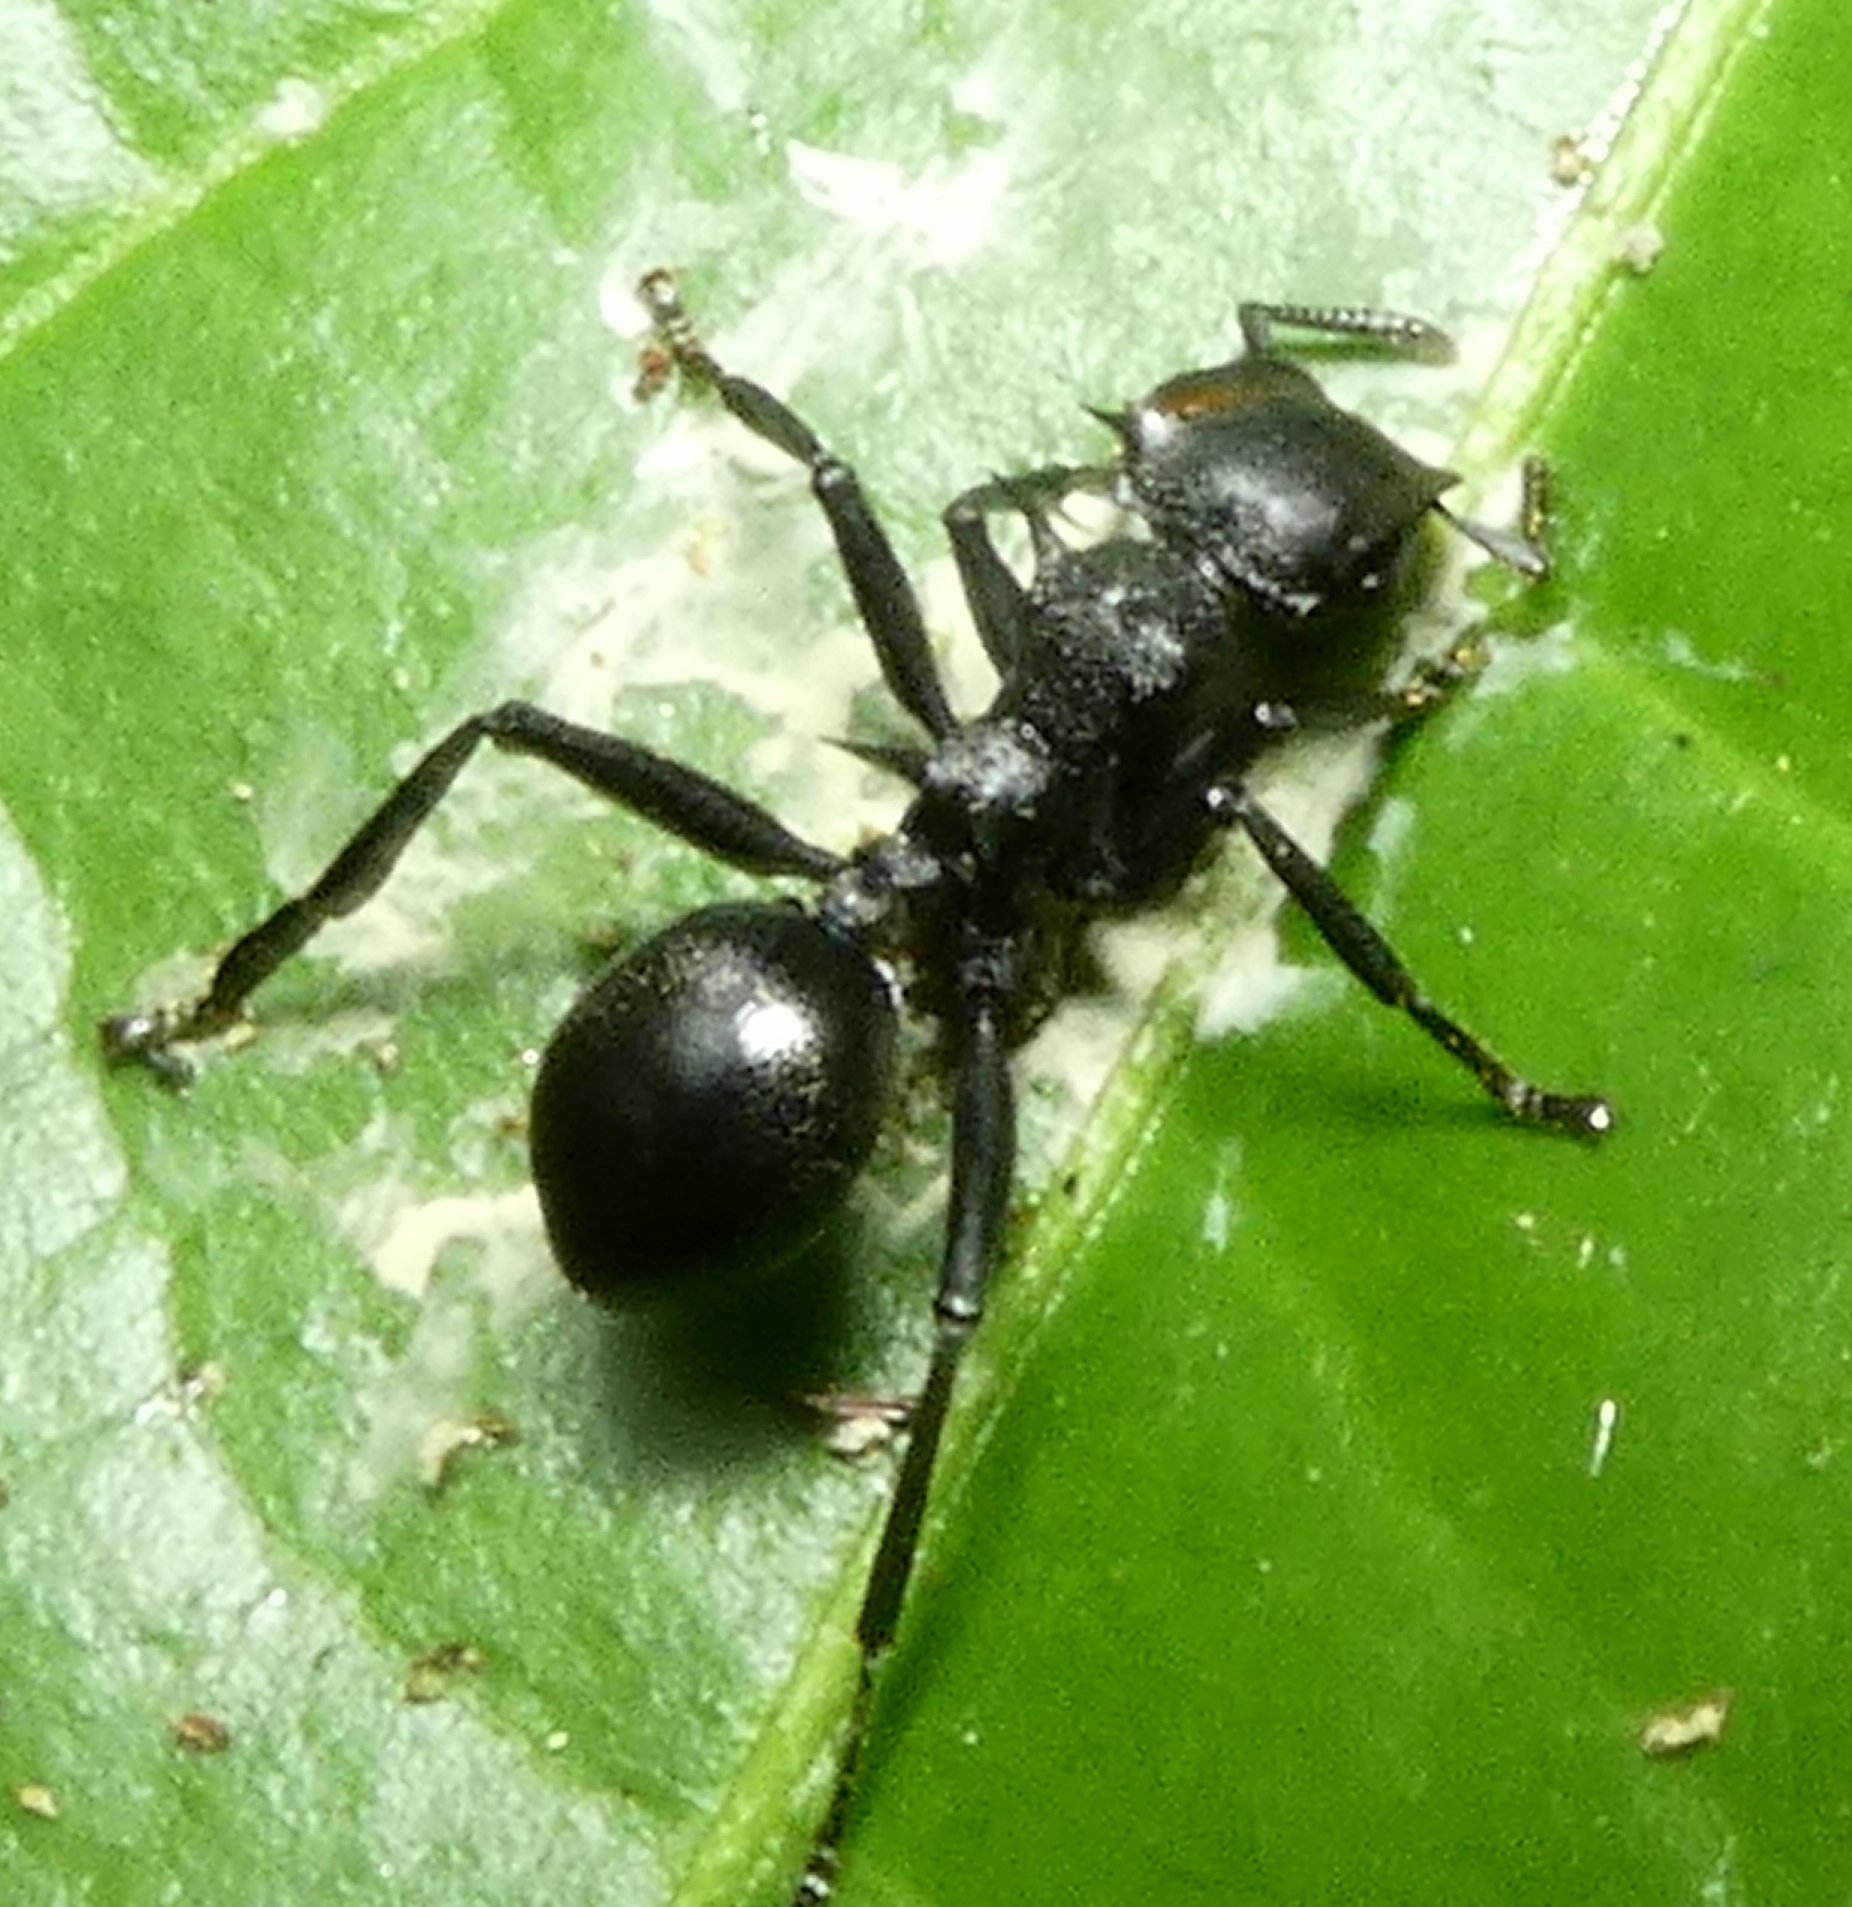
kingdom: Animalia
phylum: Arthropoda
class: Insecta
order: Hymenoptera
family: Formicidae
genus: Cephalotes
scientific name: Cephalotes atratus
